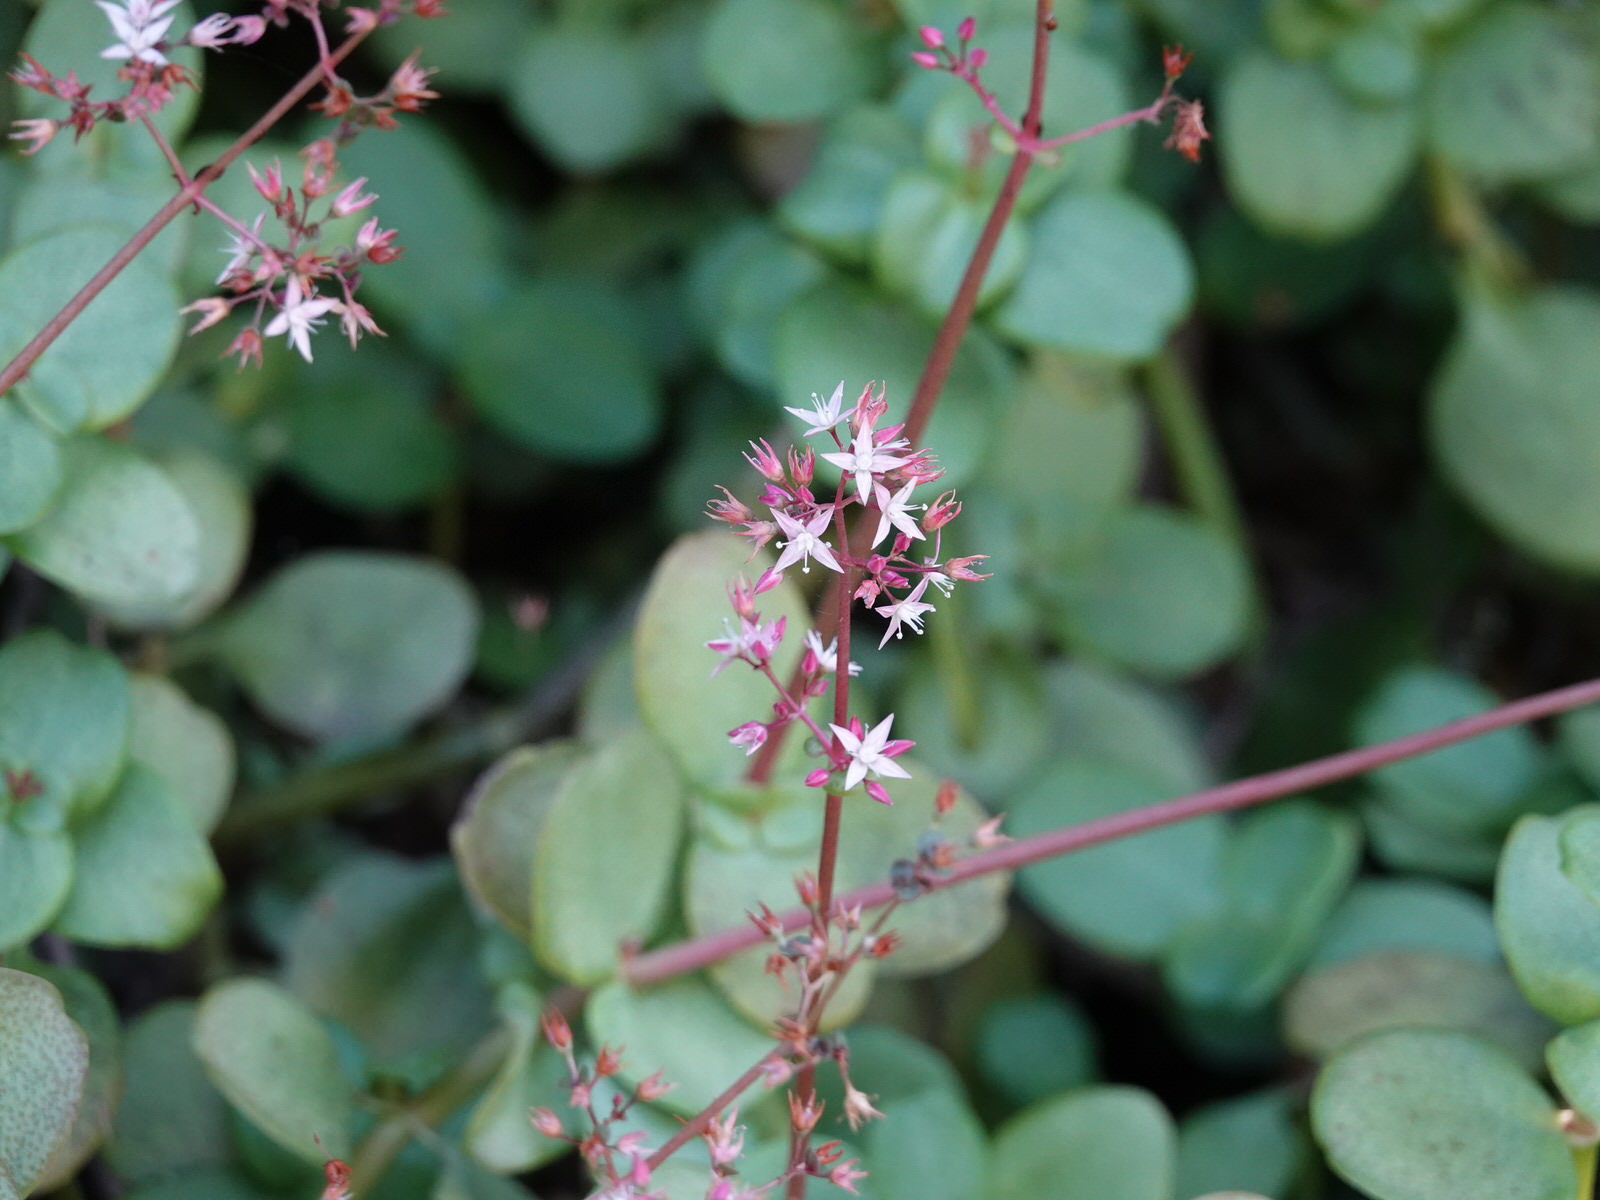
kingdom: Plantae
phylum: Tracheophyta
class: Magnoliopsida
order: Saxifragales
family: Crassulaceae
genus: Crassula
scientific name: Crassula multicava
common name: Cape province pygmyweed
